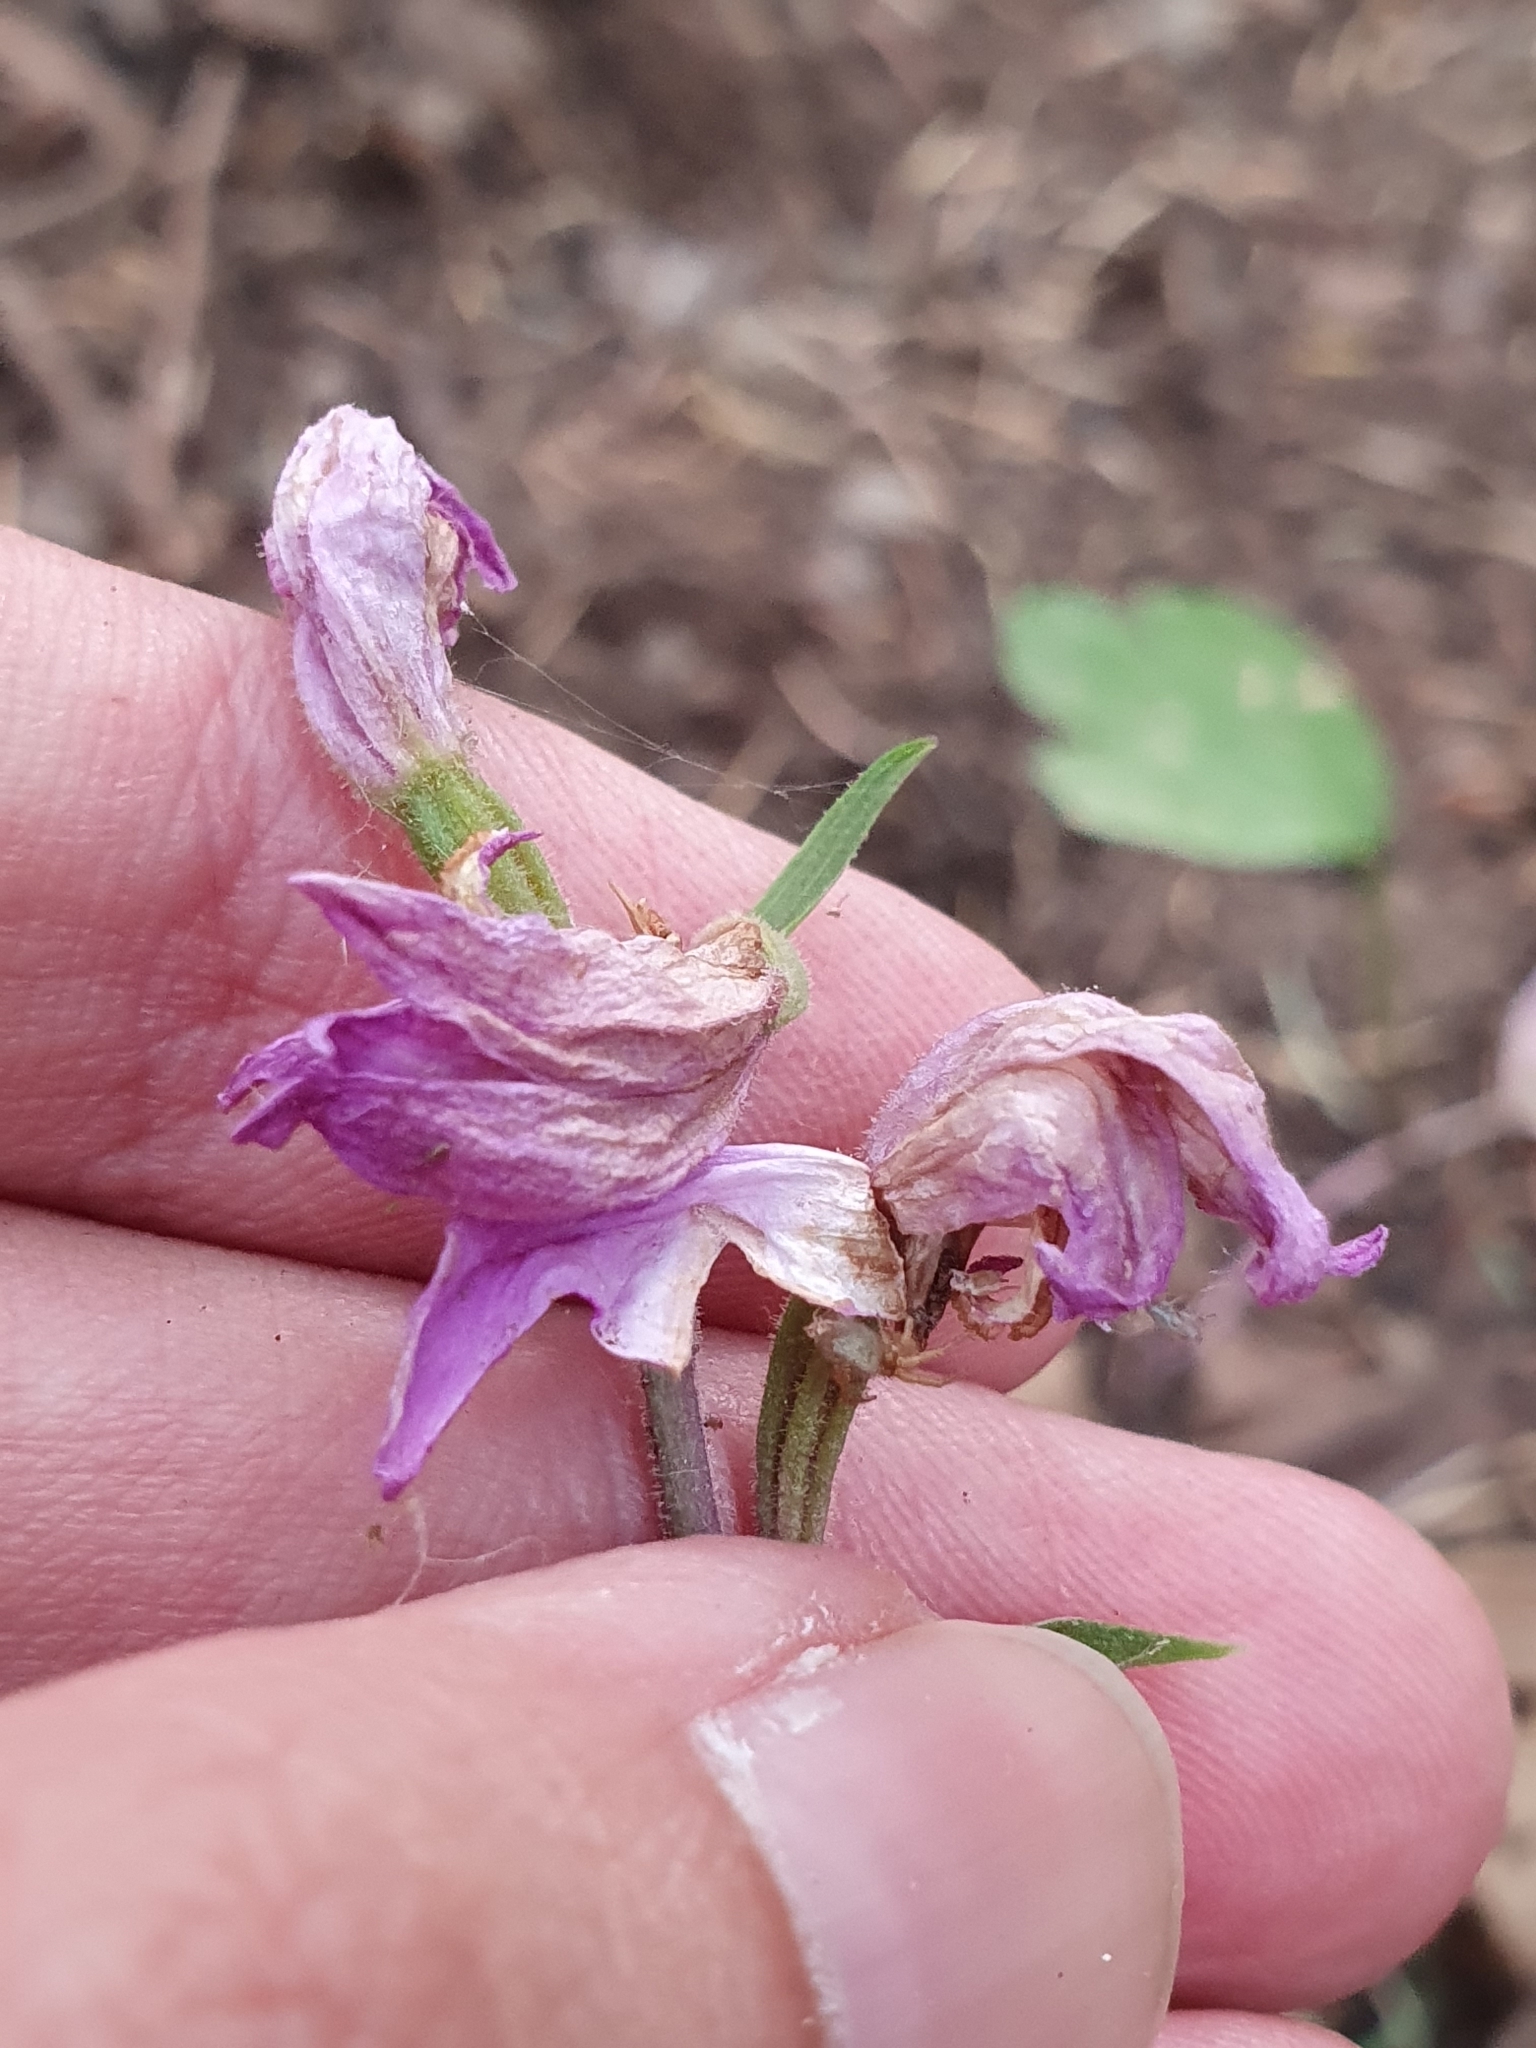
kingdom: Plantae
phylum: Tracheophyta
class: Liliopsida
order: Asparagales
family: Orchidaceae
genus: Cephalanthera
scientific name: Cephalanthera rubra
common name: Red helleborine
